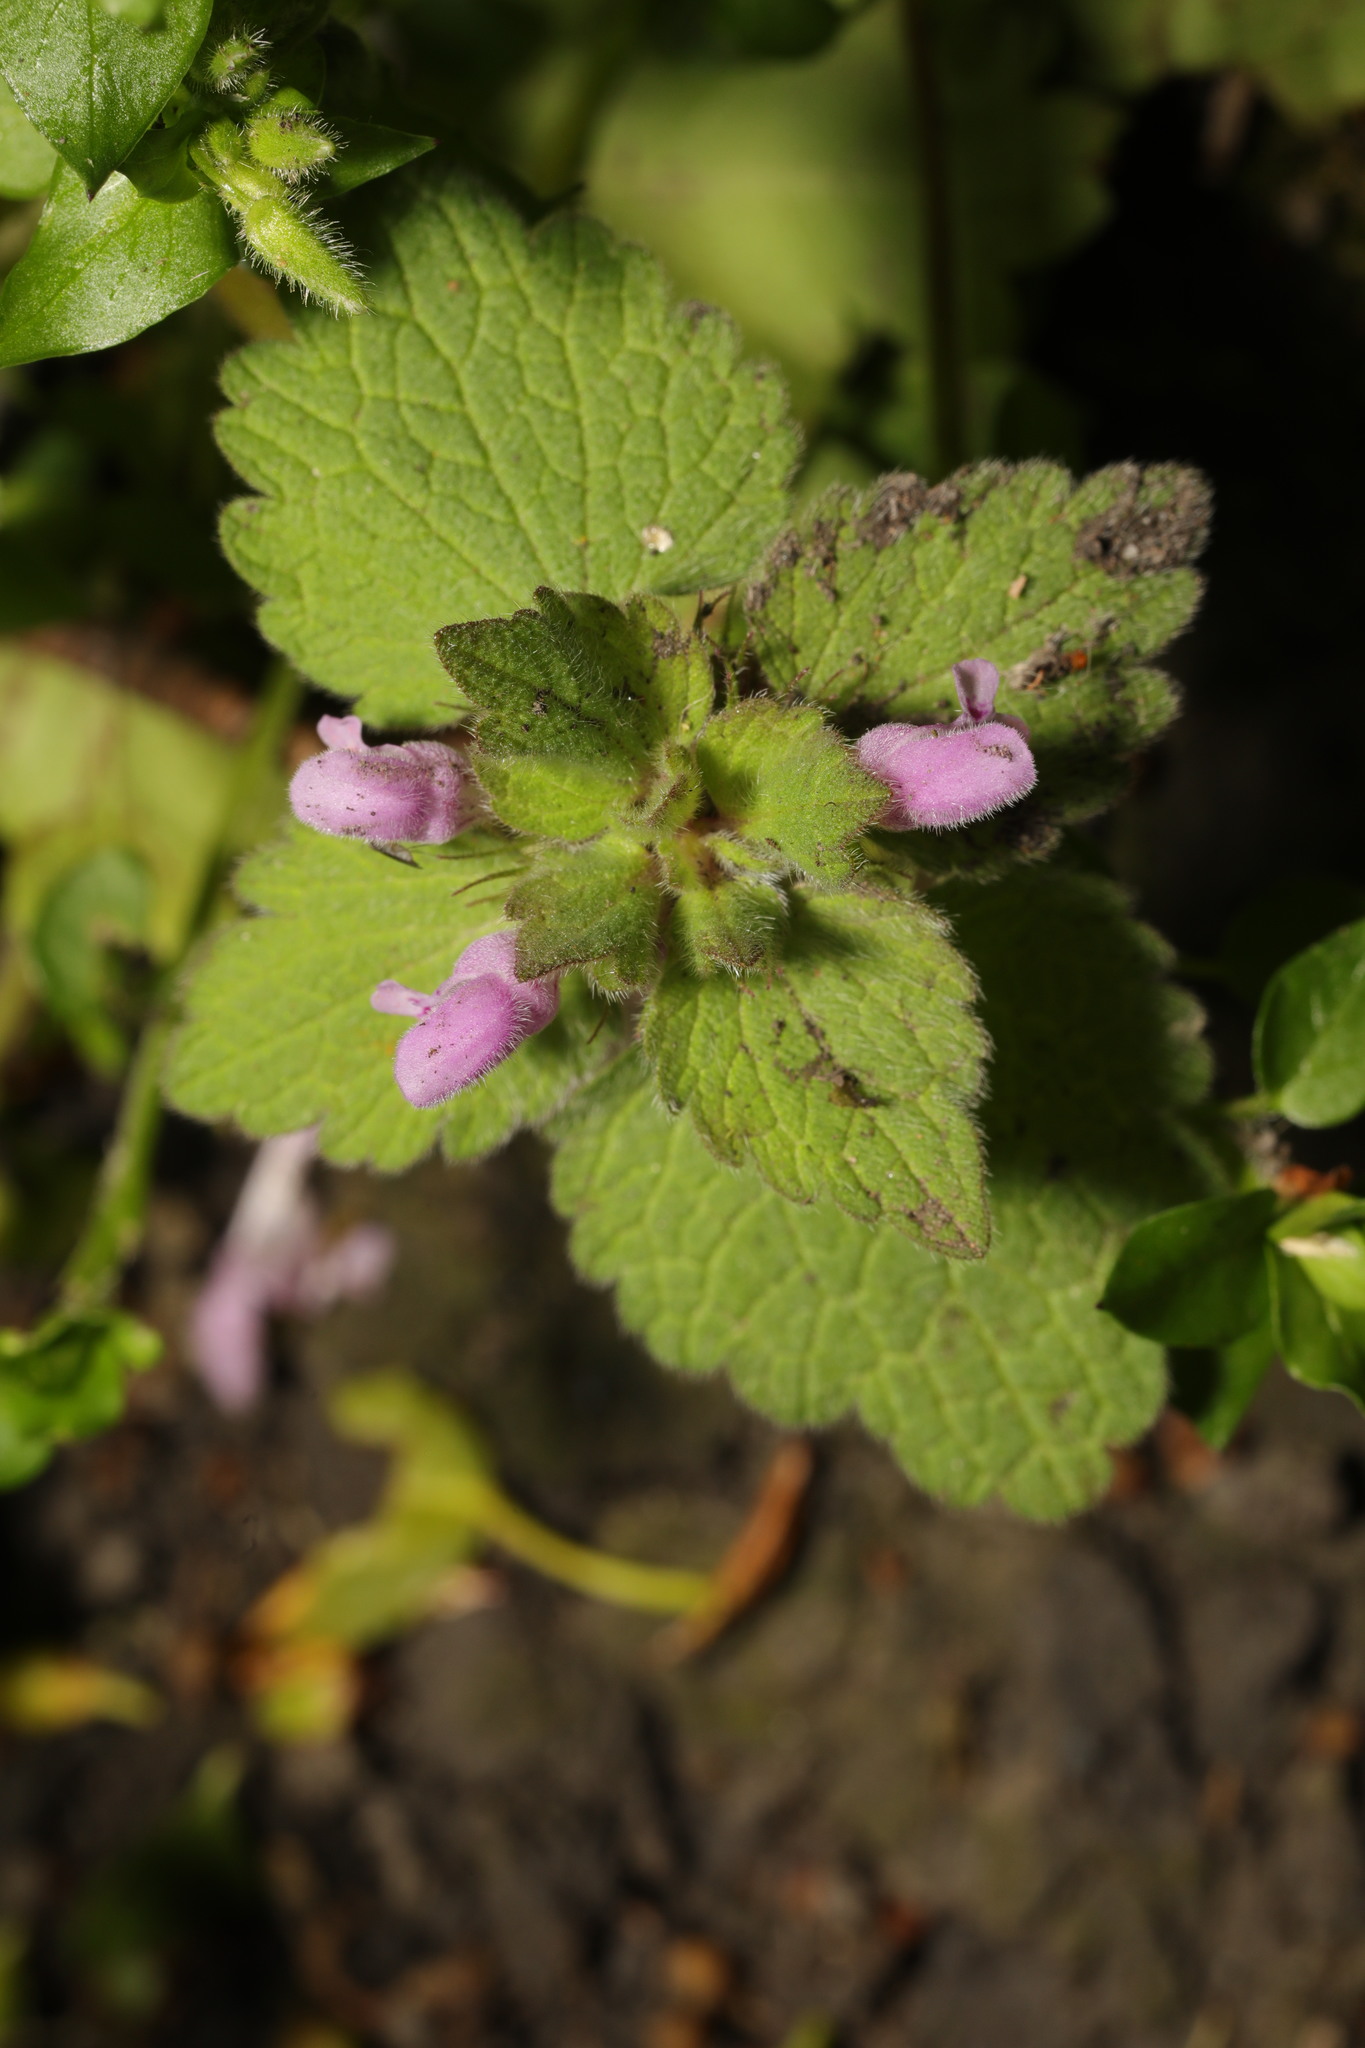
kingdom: Plantae
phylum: Tracheophyta
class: Magnoliopsida
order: Lamiales
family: Lamiaceae
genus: Lamium
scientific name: Lamium purpureum
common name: Red dead-nettle
